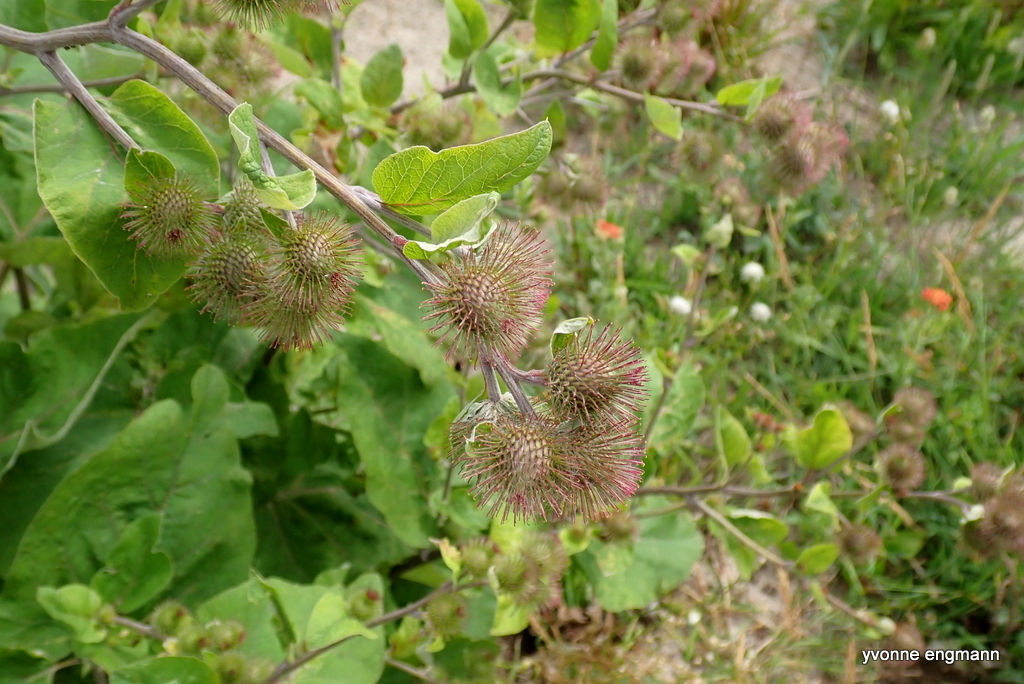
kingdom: Plantae
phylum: Tracheophyta
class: Magnoliopsida
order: Asterales
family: Asteraceae
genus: Arctium
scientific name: Arctium nemorosum
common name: Wood burdock
